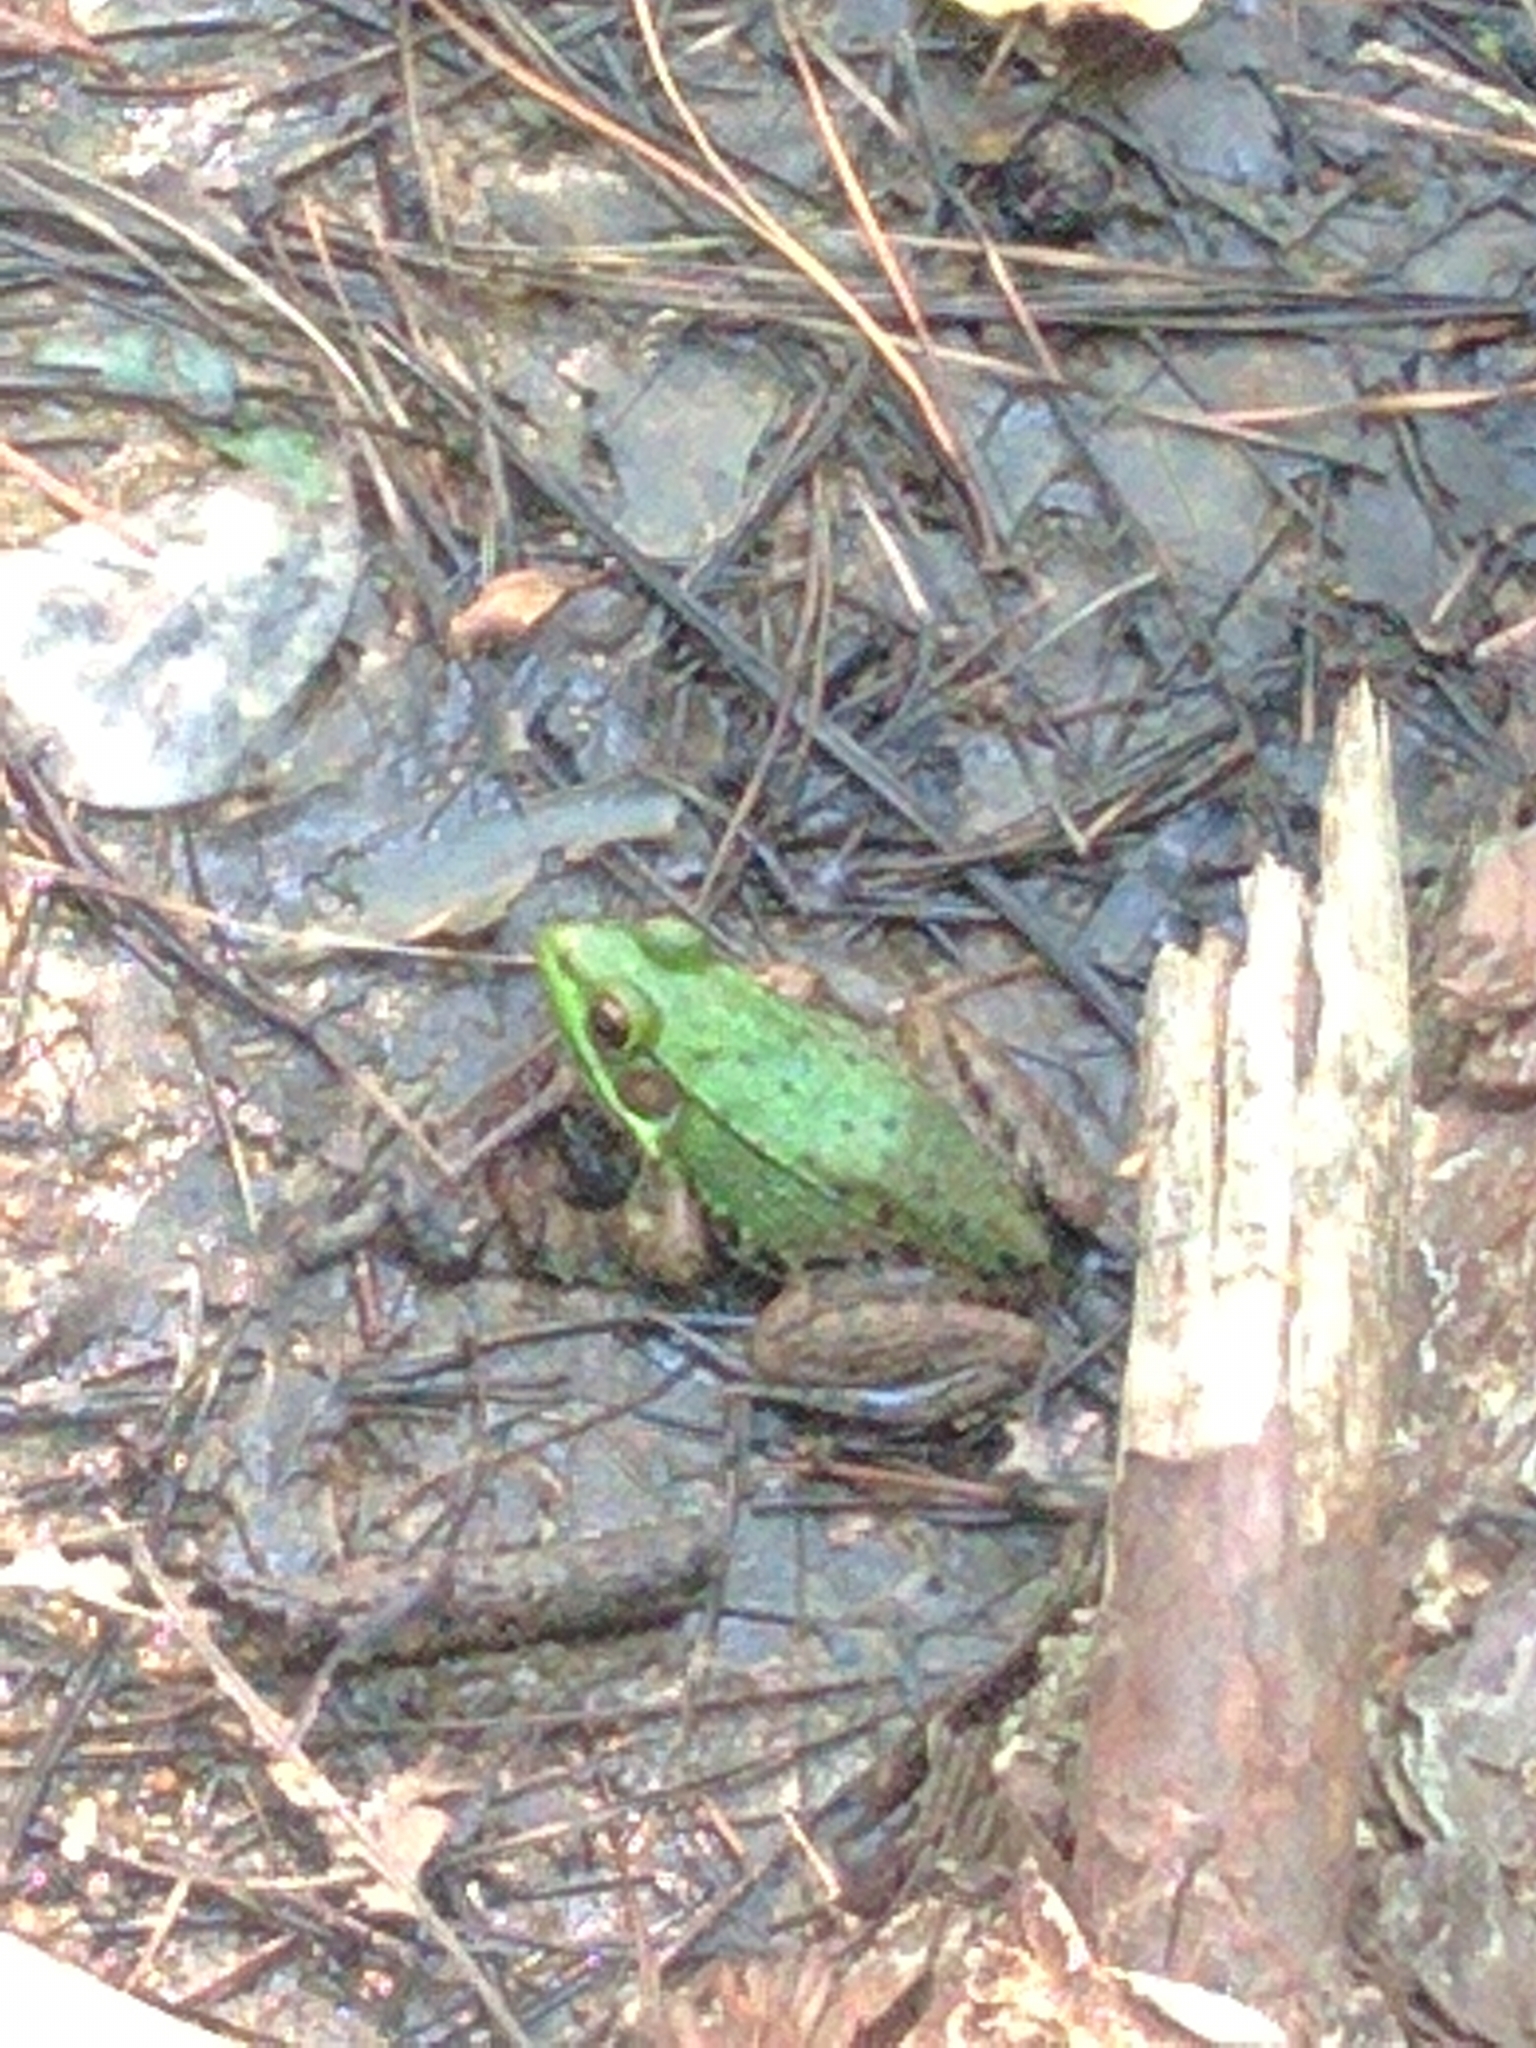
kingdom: Animalia
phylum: Chordata
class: Amphibia
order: Anura
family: Ranidae
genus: Lithobates
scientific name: Lithobates clamitans
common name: Green frog
